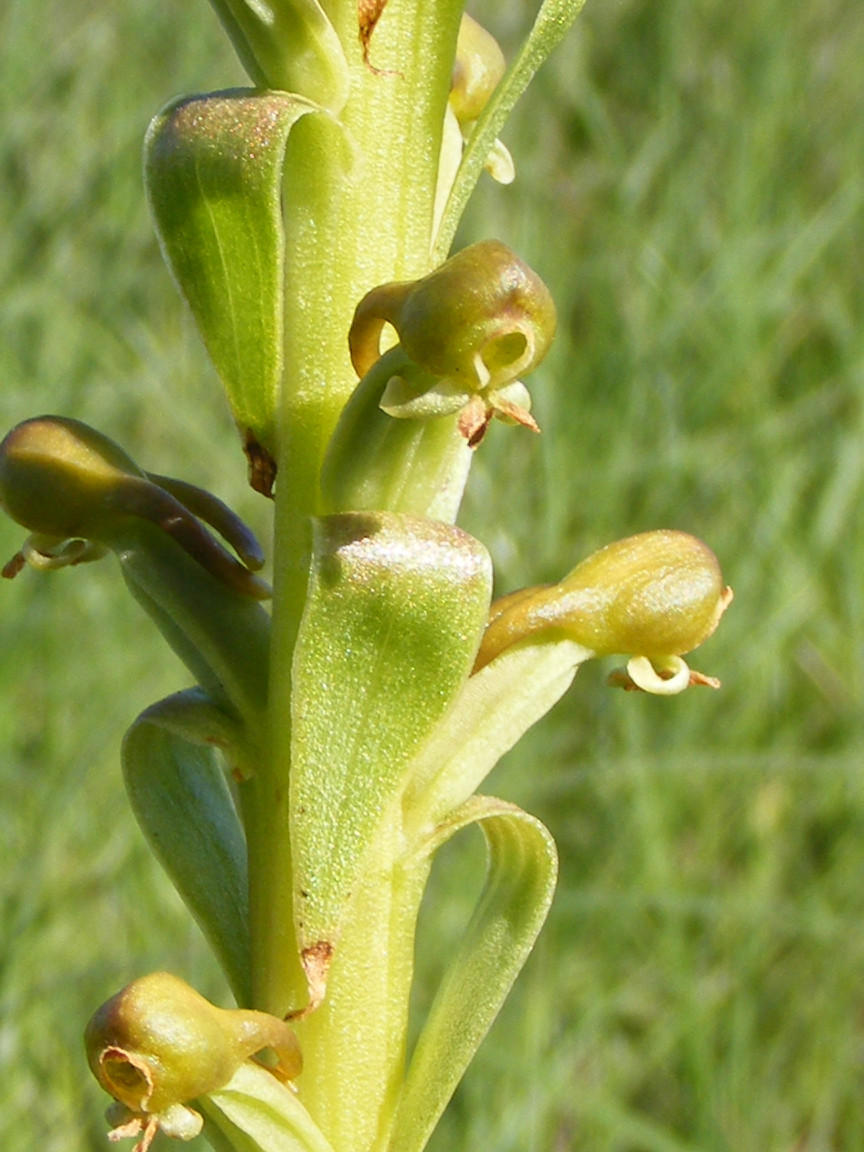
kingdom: Plantae
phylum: Tracheophyta
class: Liliopsida
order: Asparagales
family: Orchidaceae
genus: Satyrium
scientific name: Satyrium parviflorum
